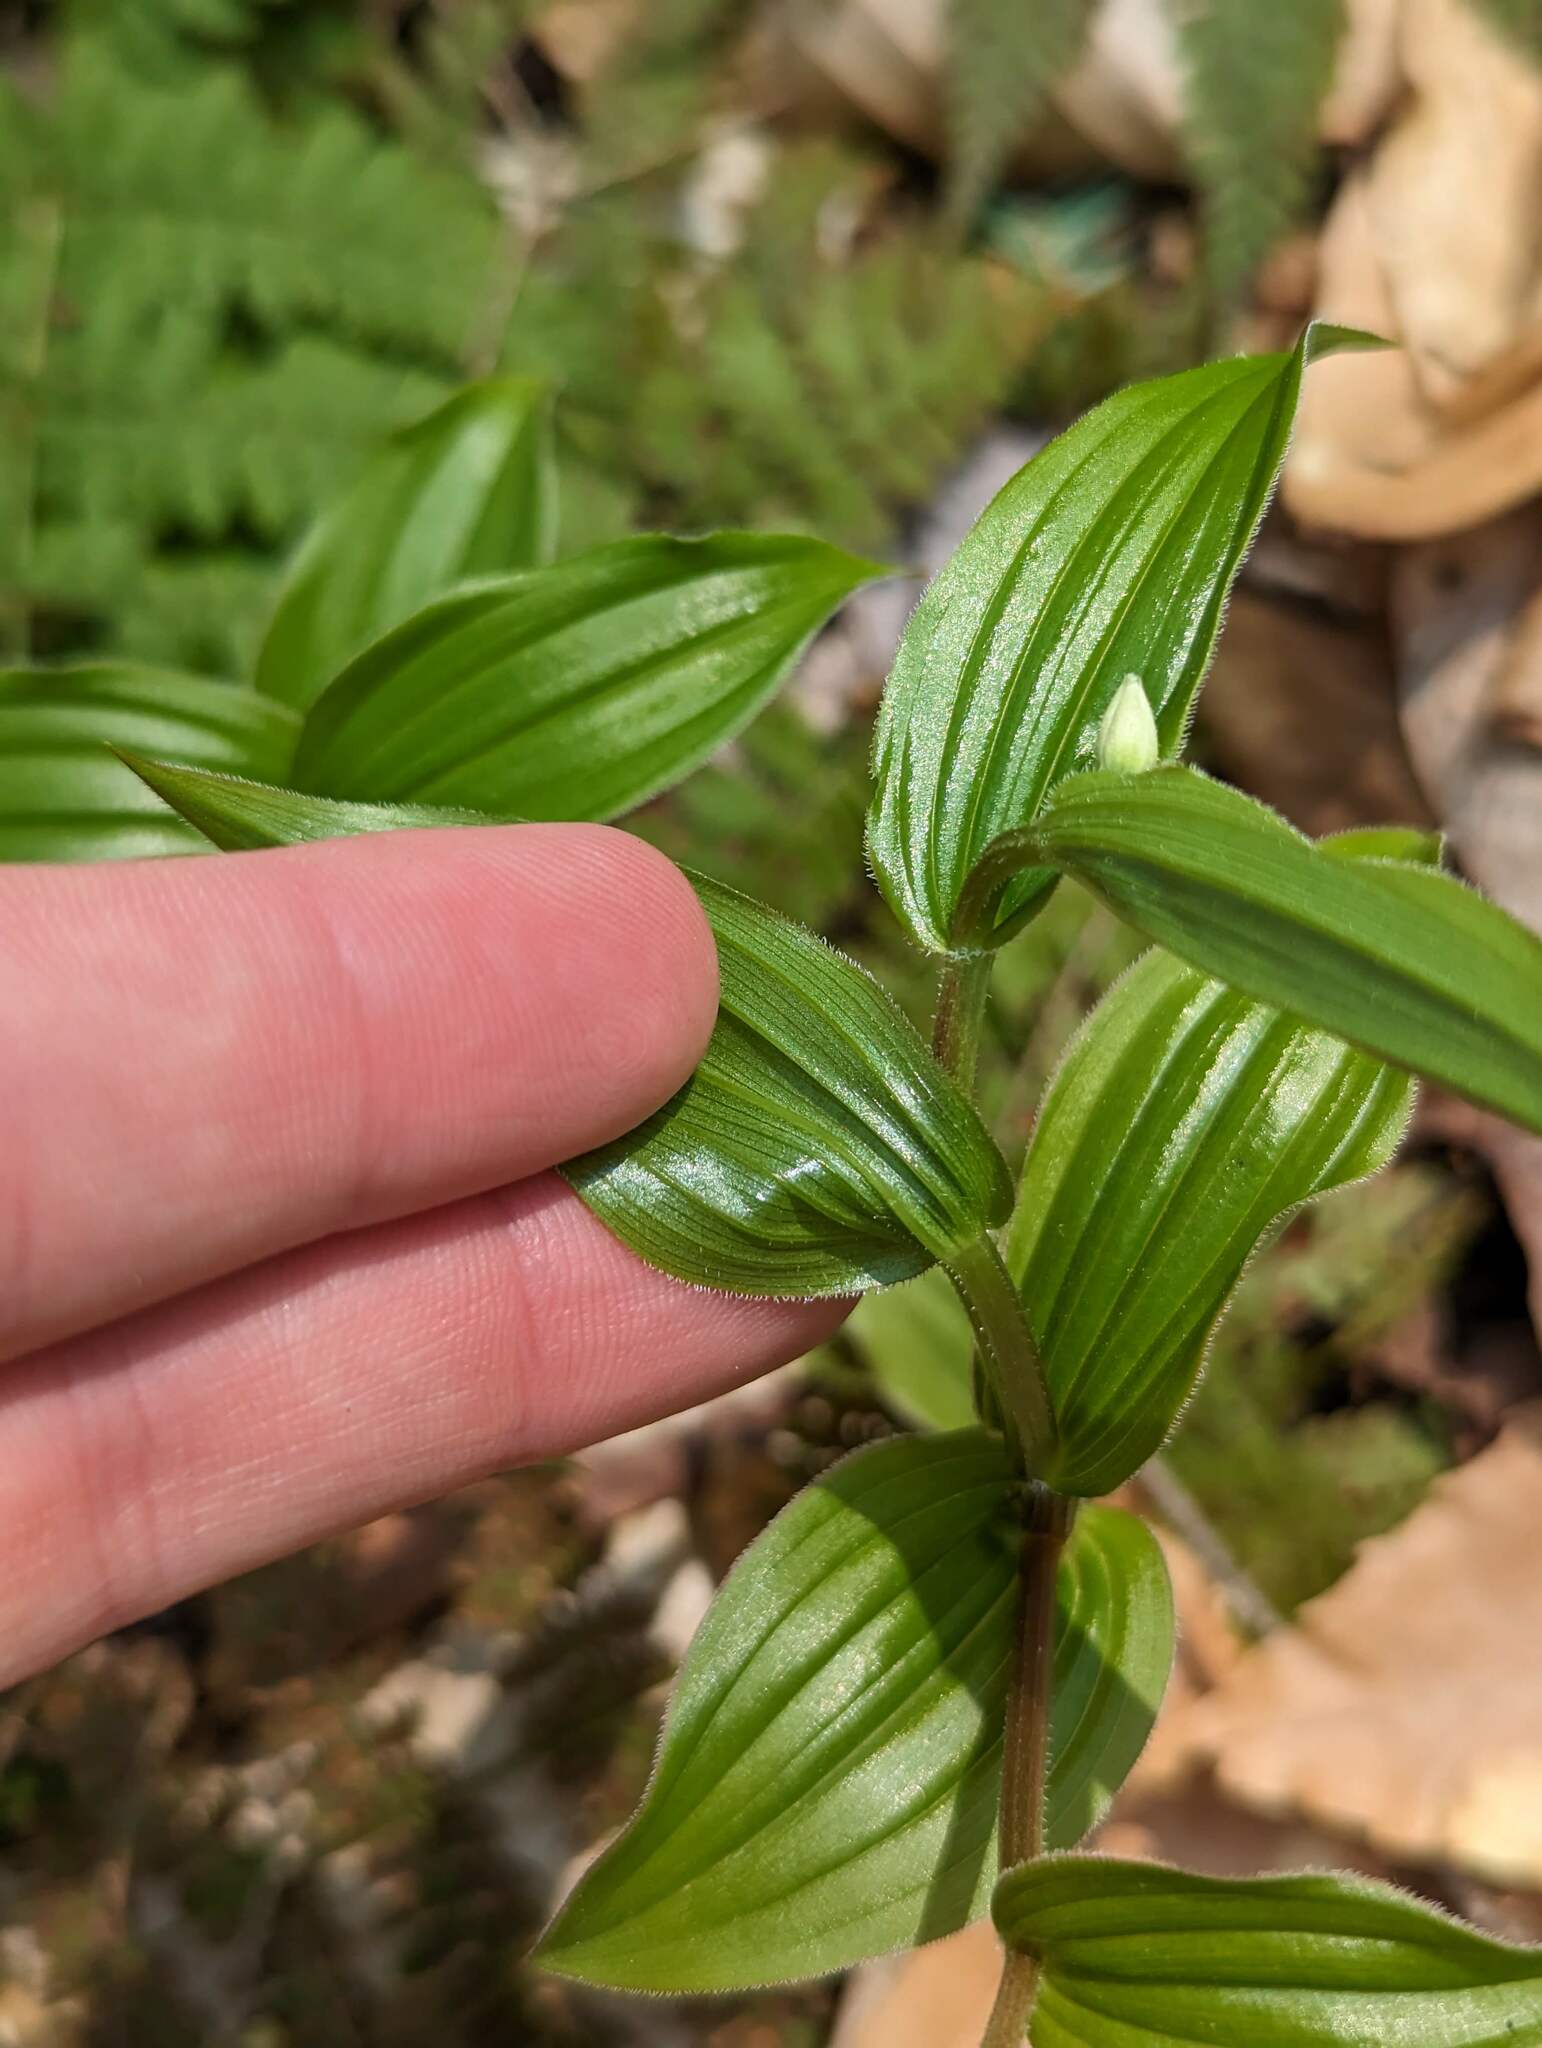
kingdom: Plantae
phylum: Tracheophyta
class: Liliopsida
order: Liliales
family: Liliaceae
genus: Streptopus
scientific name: Streptopus lanceolatus
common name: Rose mandarin
